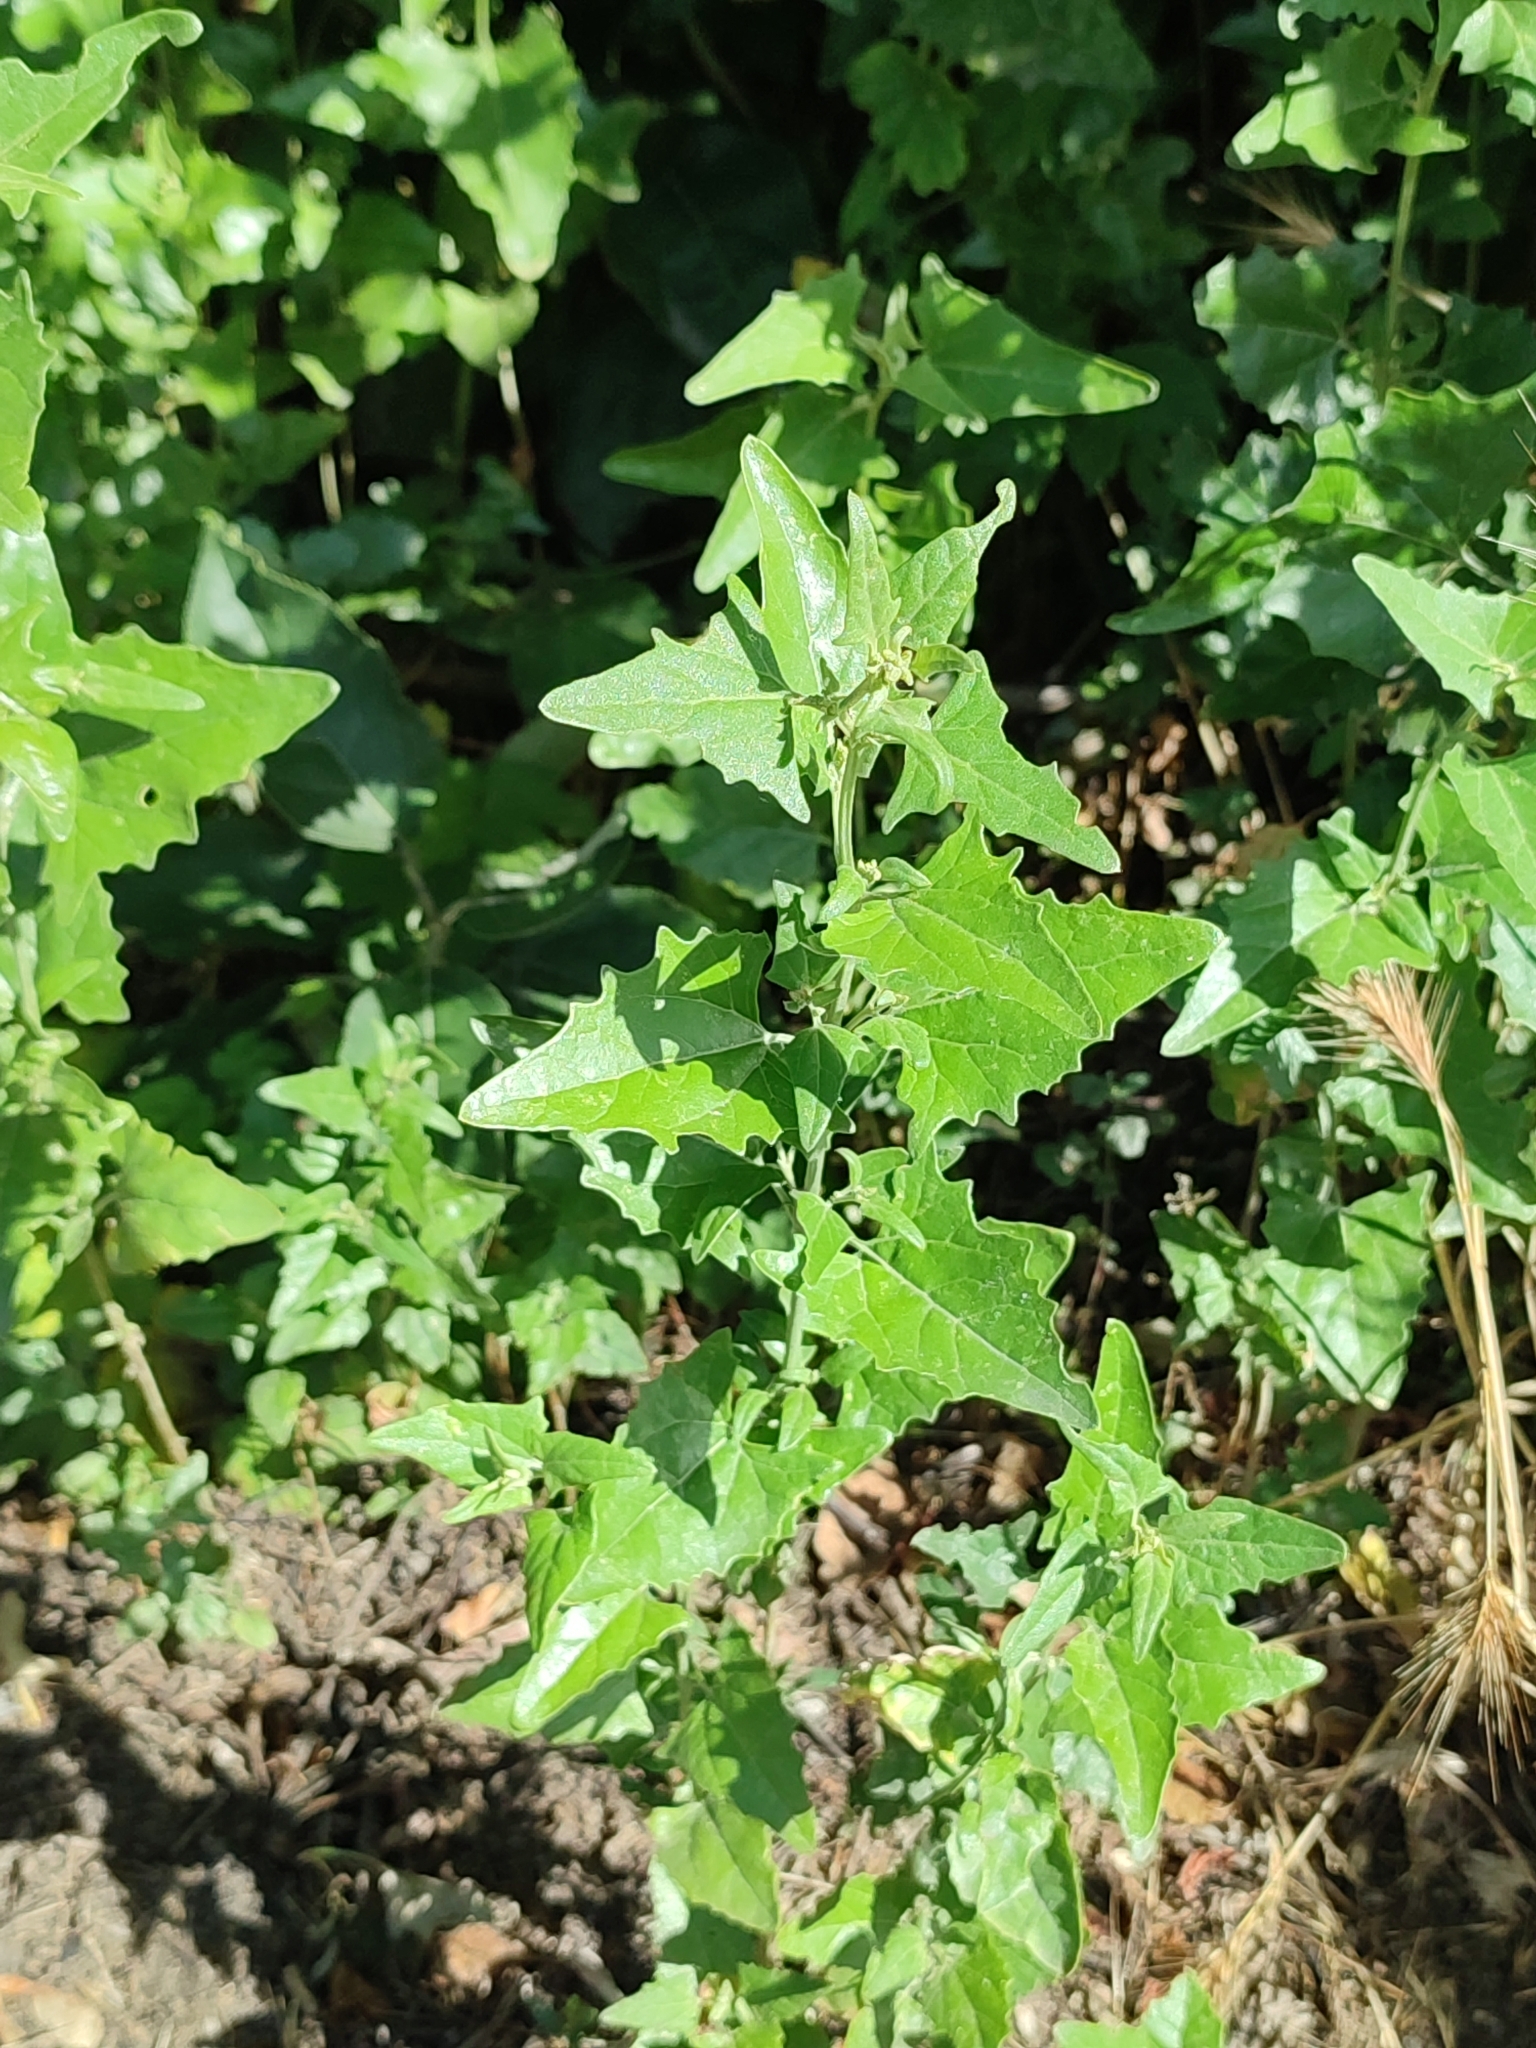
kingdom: Plantae
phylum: Tracheophyta
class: Magnoliopsida
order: Caryophyllales
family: Amaranthaceae
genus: Atriplex
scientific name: Atriplex sagittata
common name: Purple orache
